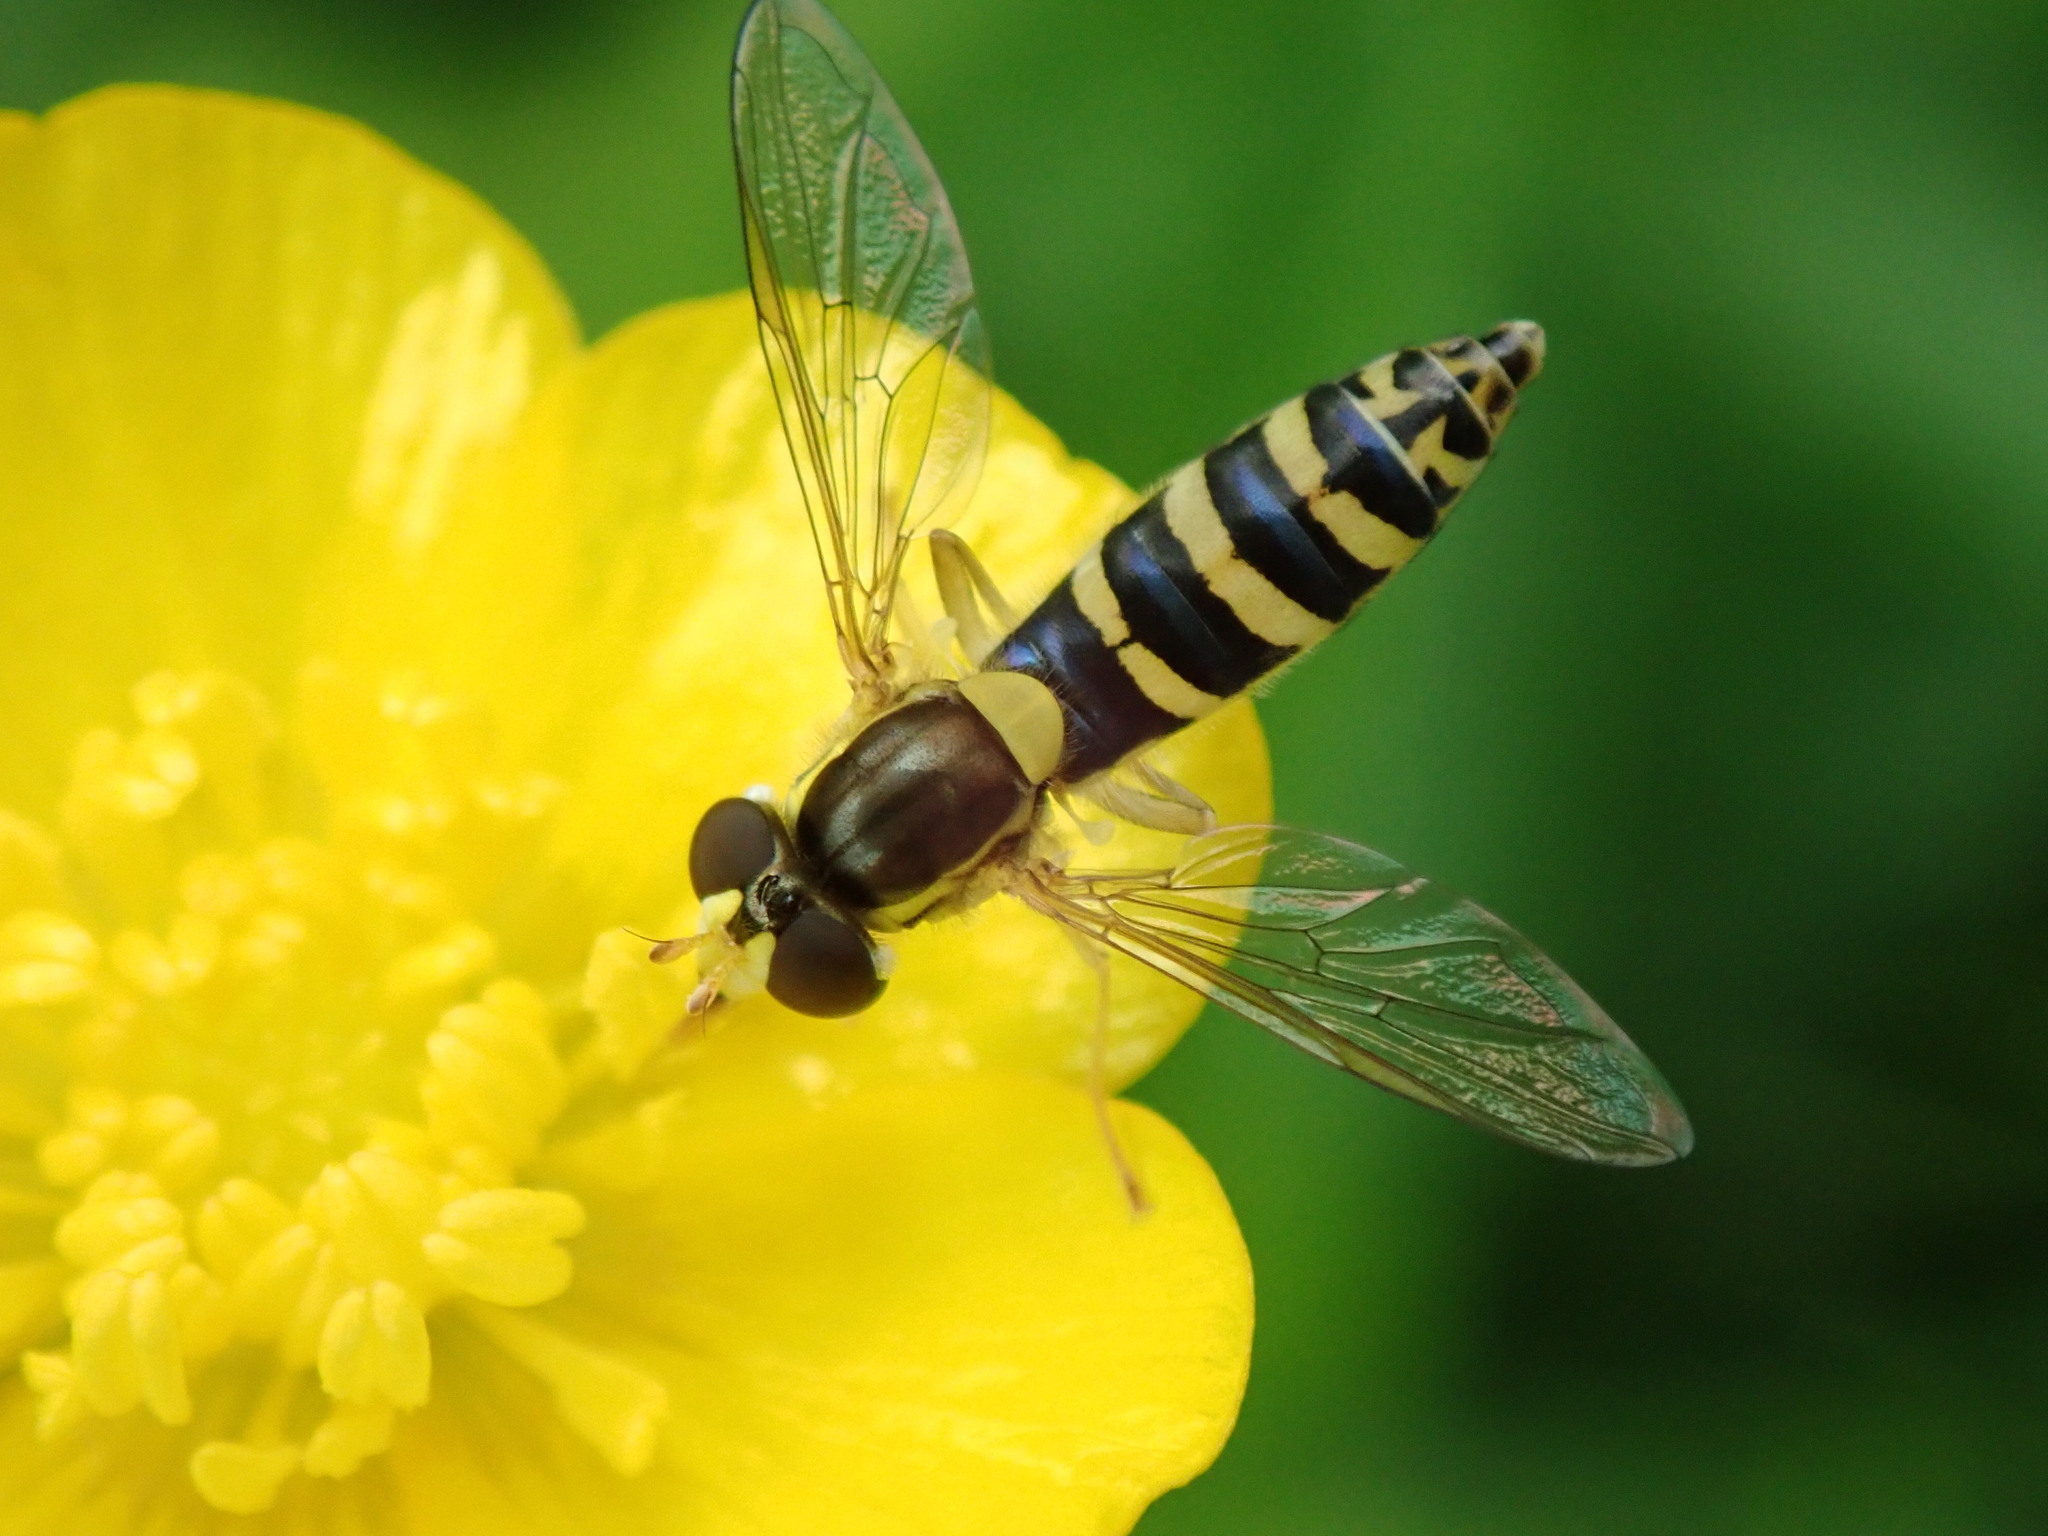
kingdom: Animalia
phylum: Arthropoda
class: Insecta
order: Diptera
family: Syrphidae
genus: Sphaerophoria
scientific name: Sphaerophoria
